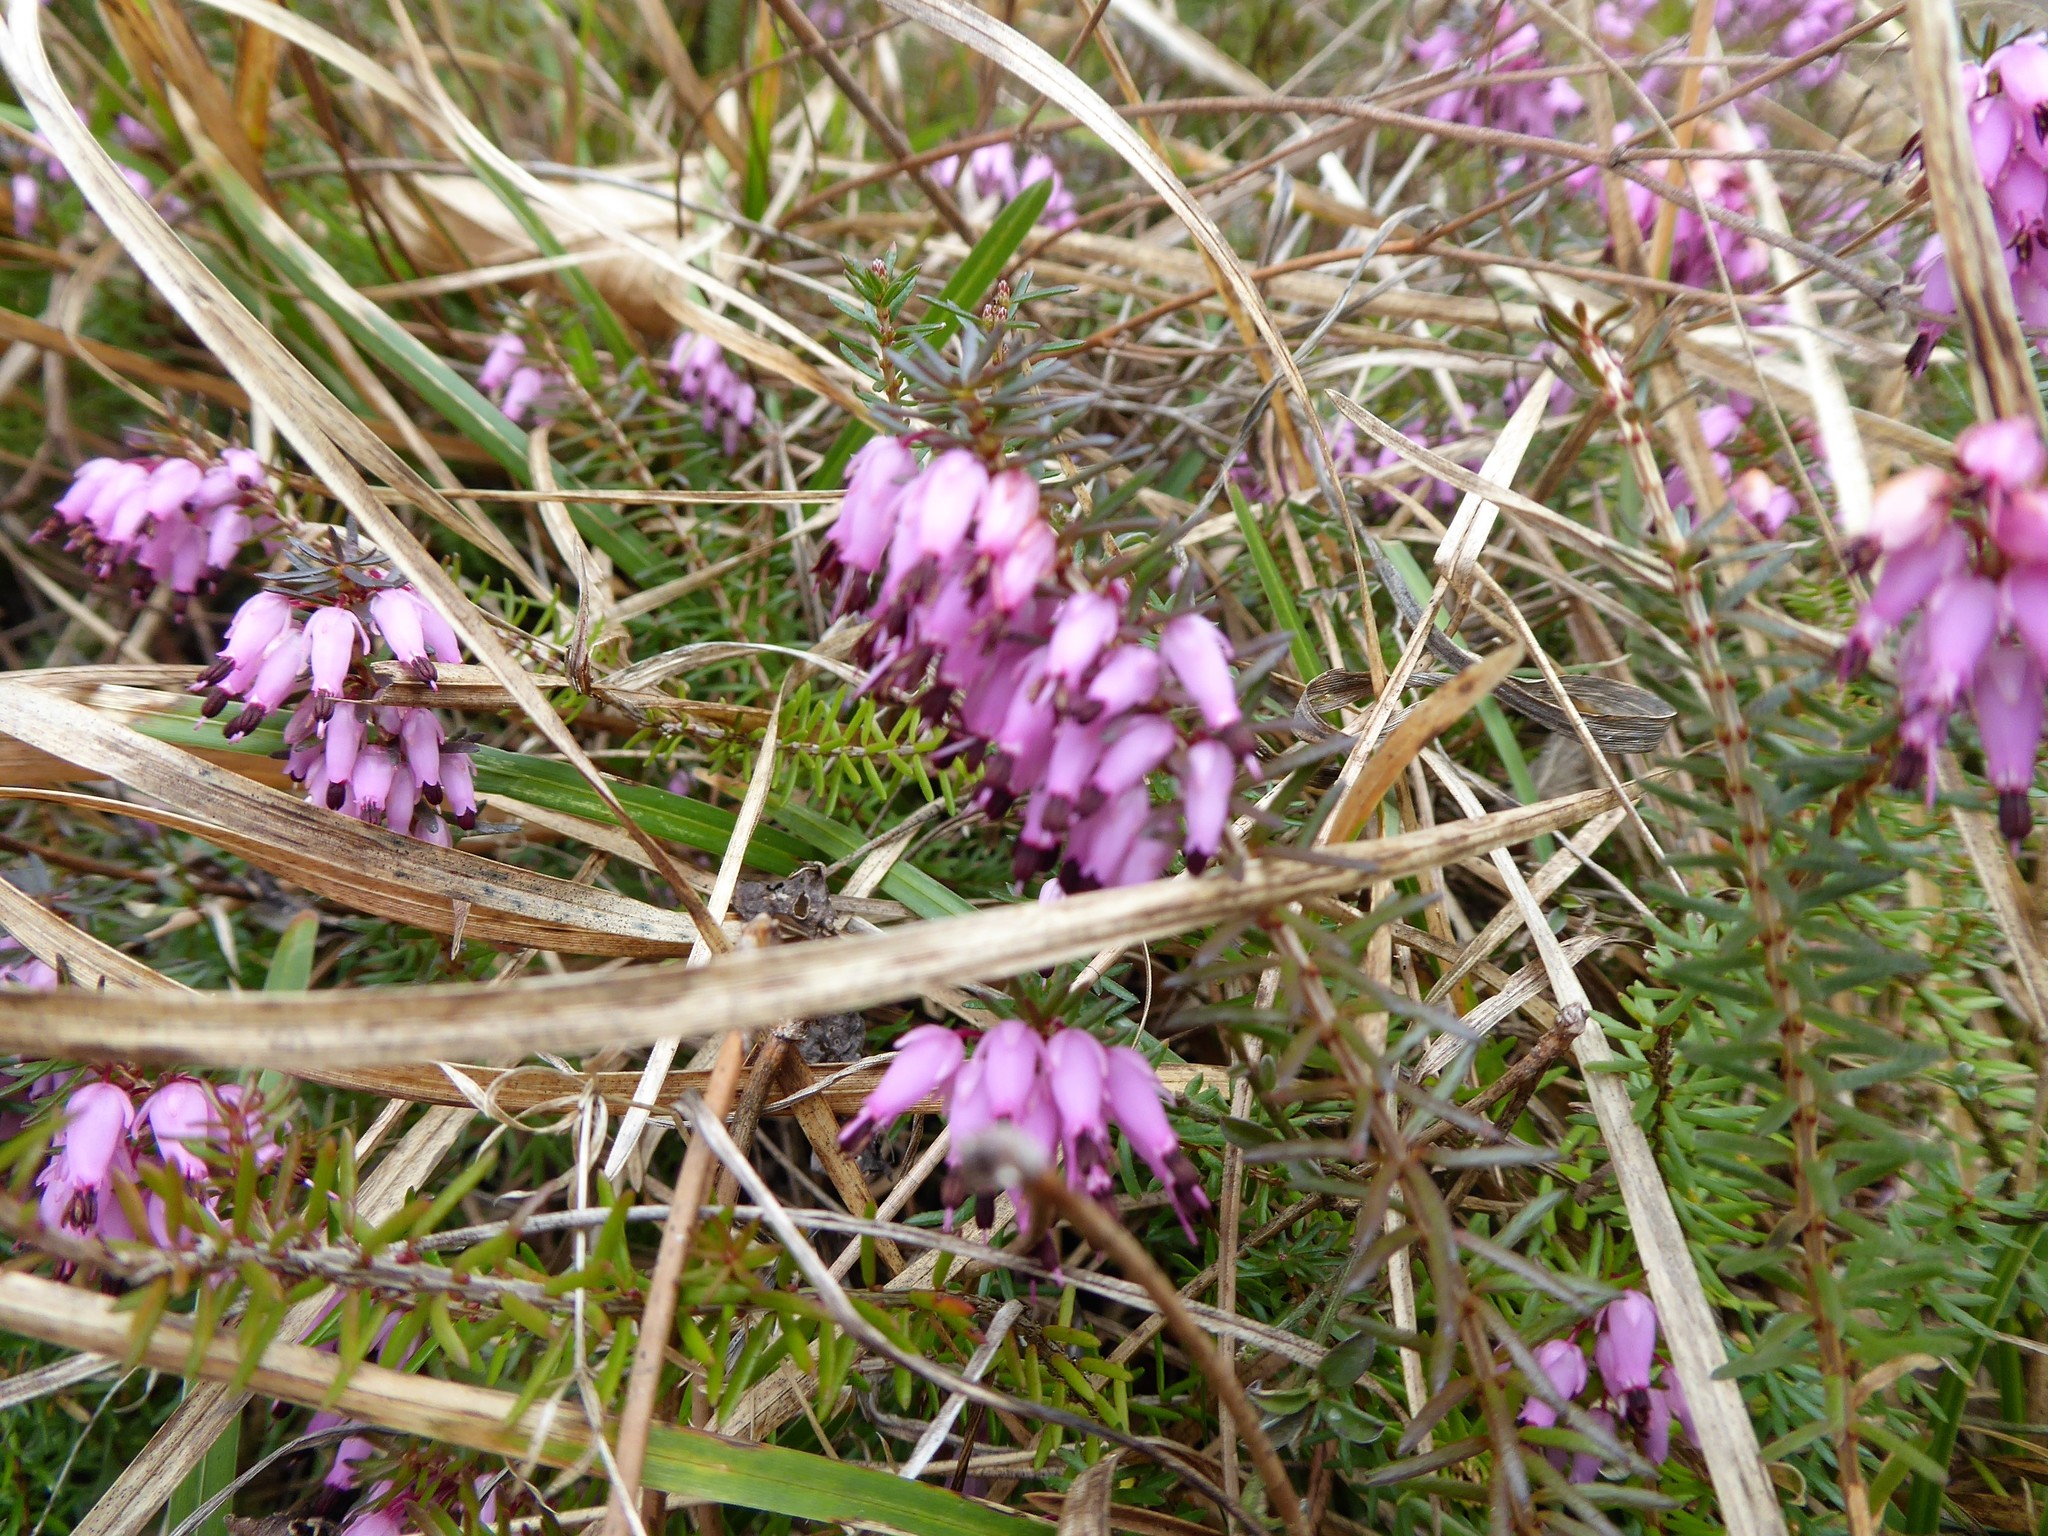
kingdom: Plantae
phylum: Tracheophyta
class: Magnoliopsida
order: Ericales
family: Ericaceae
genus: Erica
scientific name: Erica carnea
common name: Winter heath
